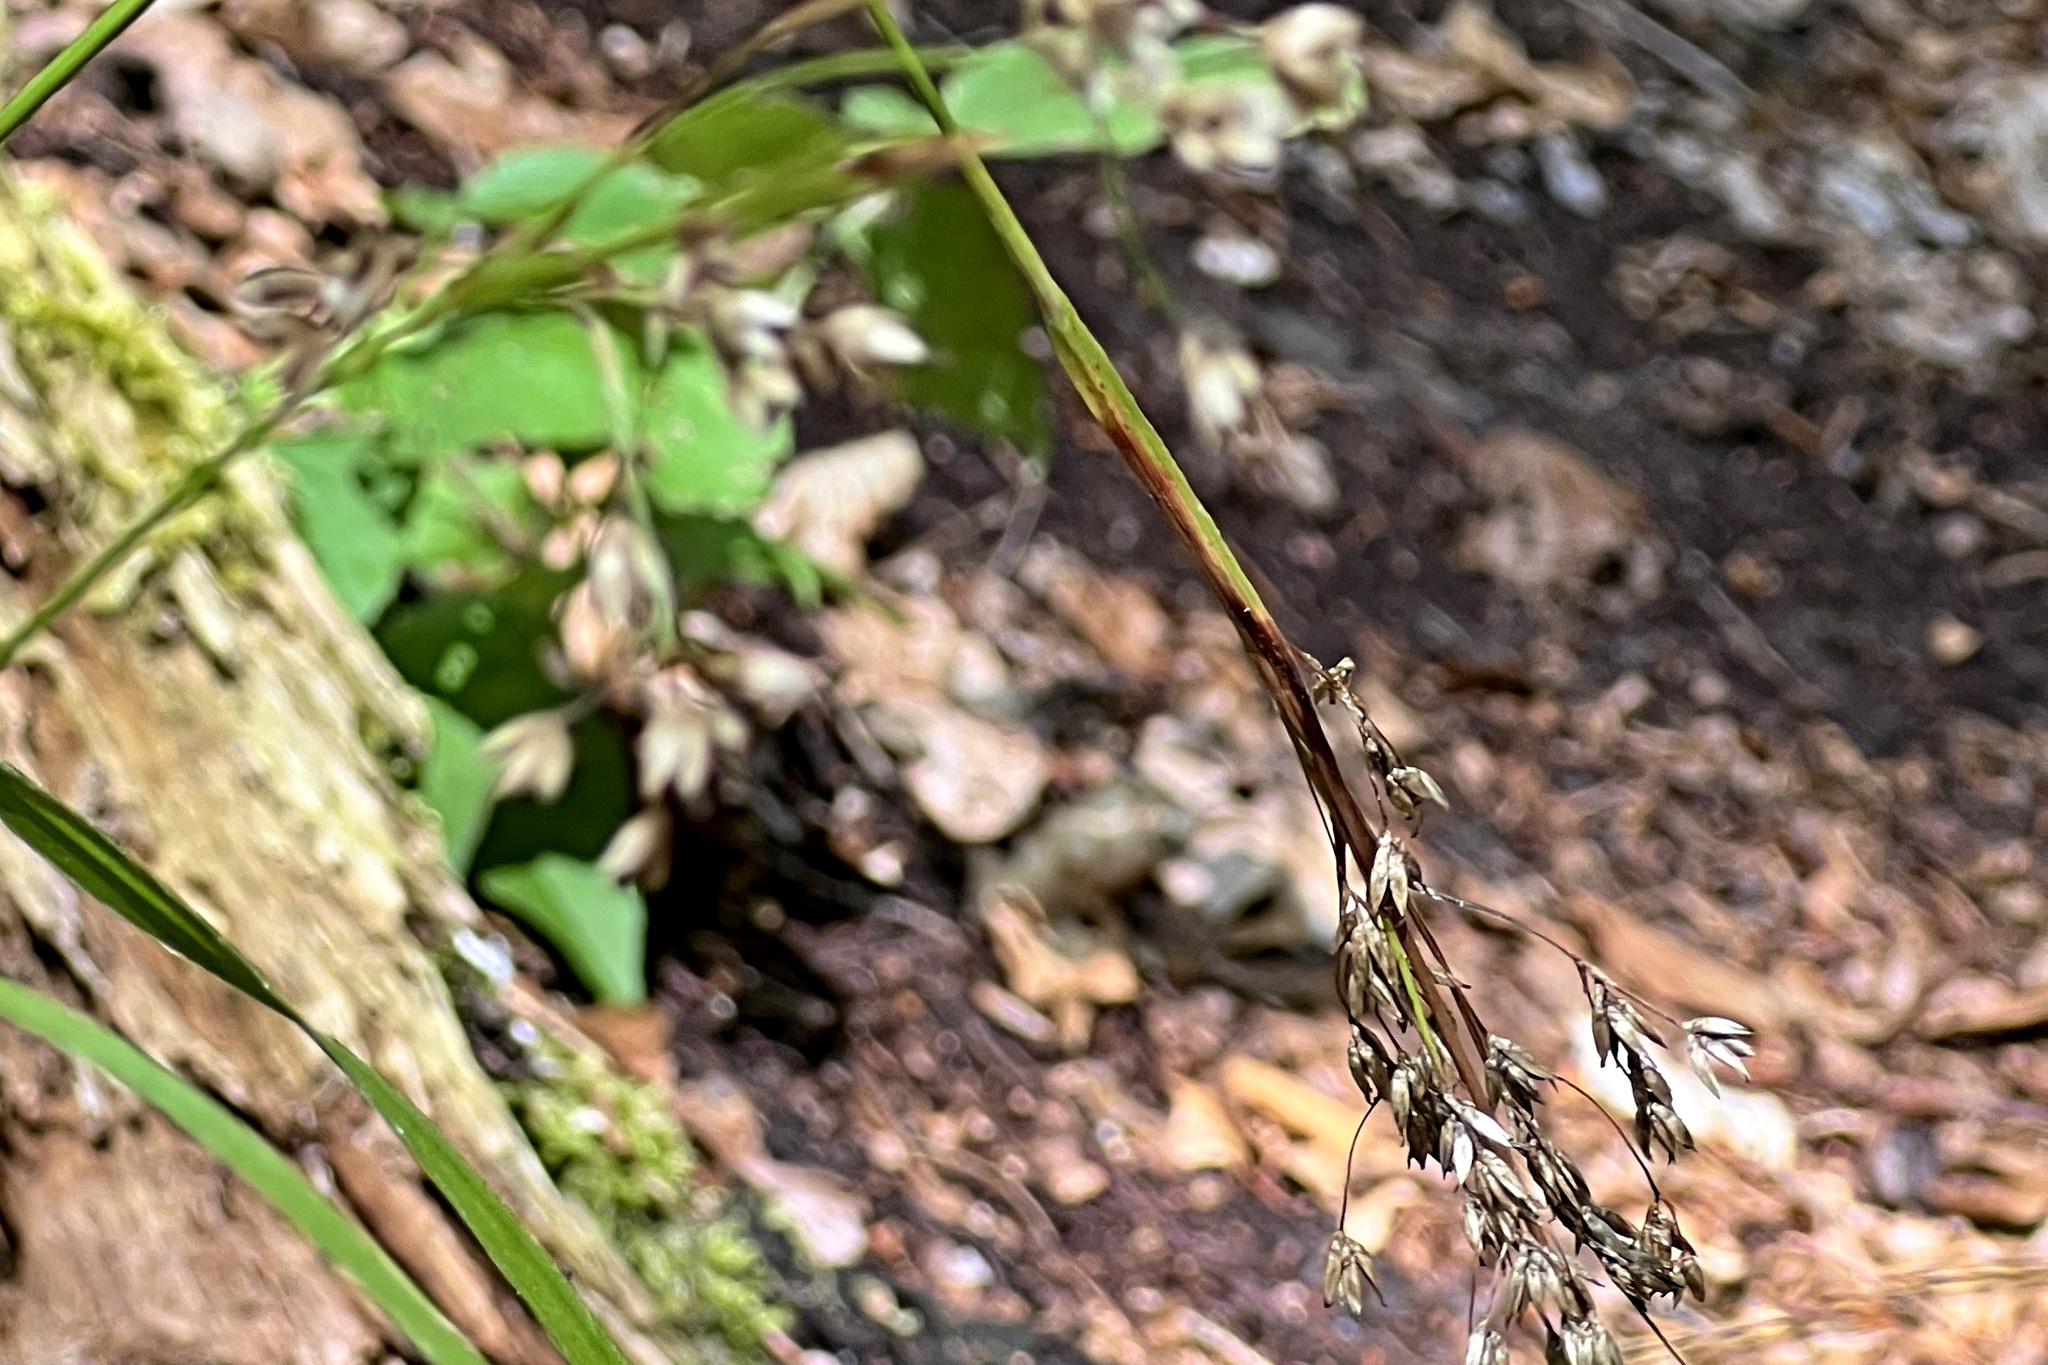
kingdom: Plantae
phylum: Tracheophyta
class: Liliopsida
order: Poales
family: Juncaceae
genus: Luzula
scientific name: Luzula luzuloides
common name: White wood-rush
